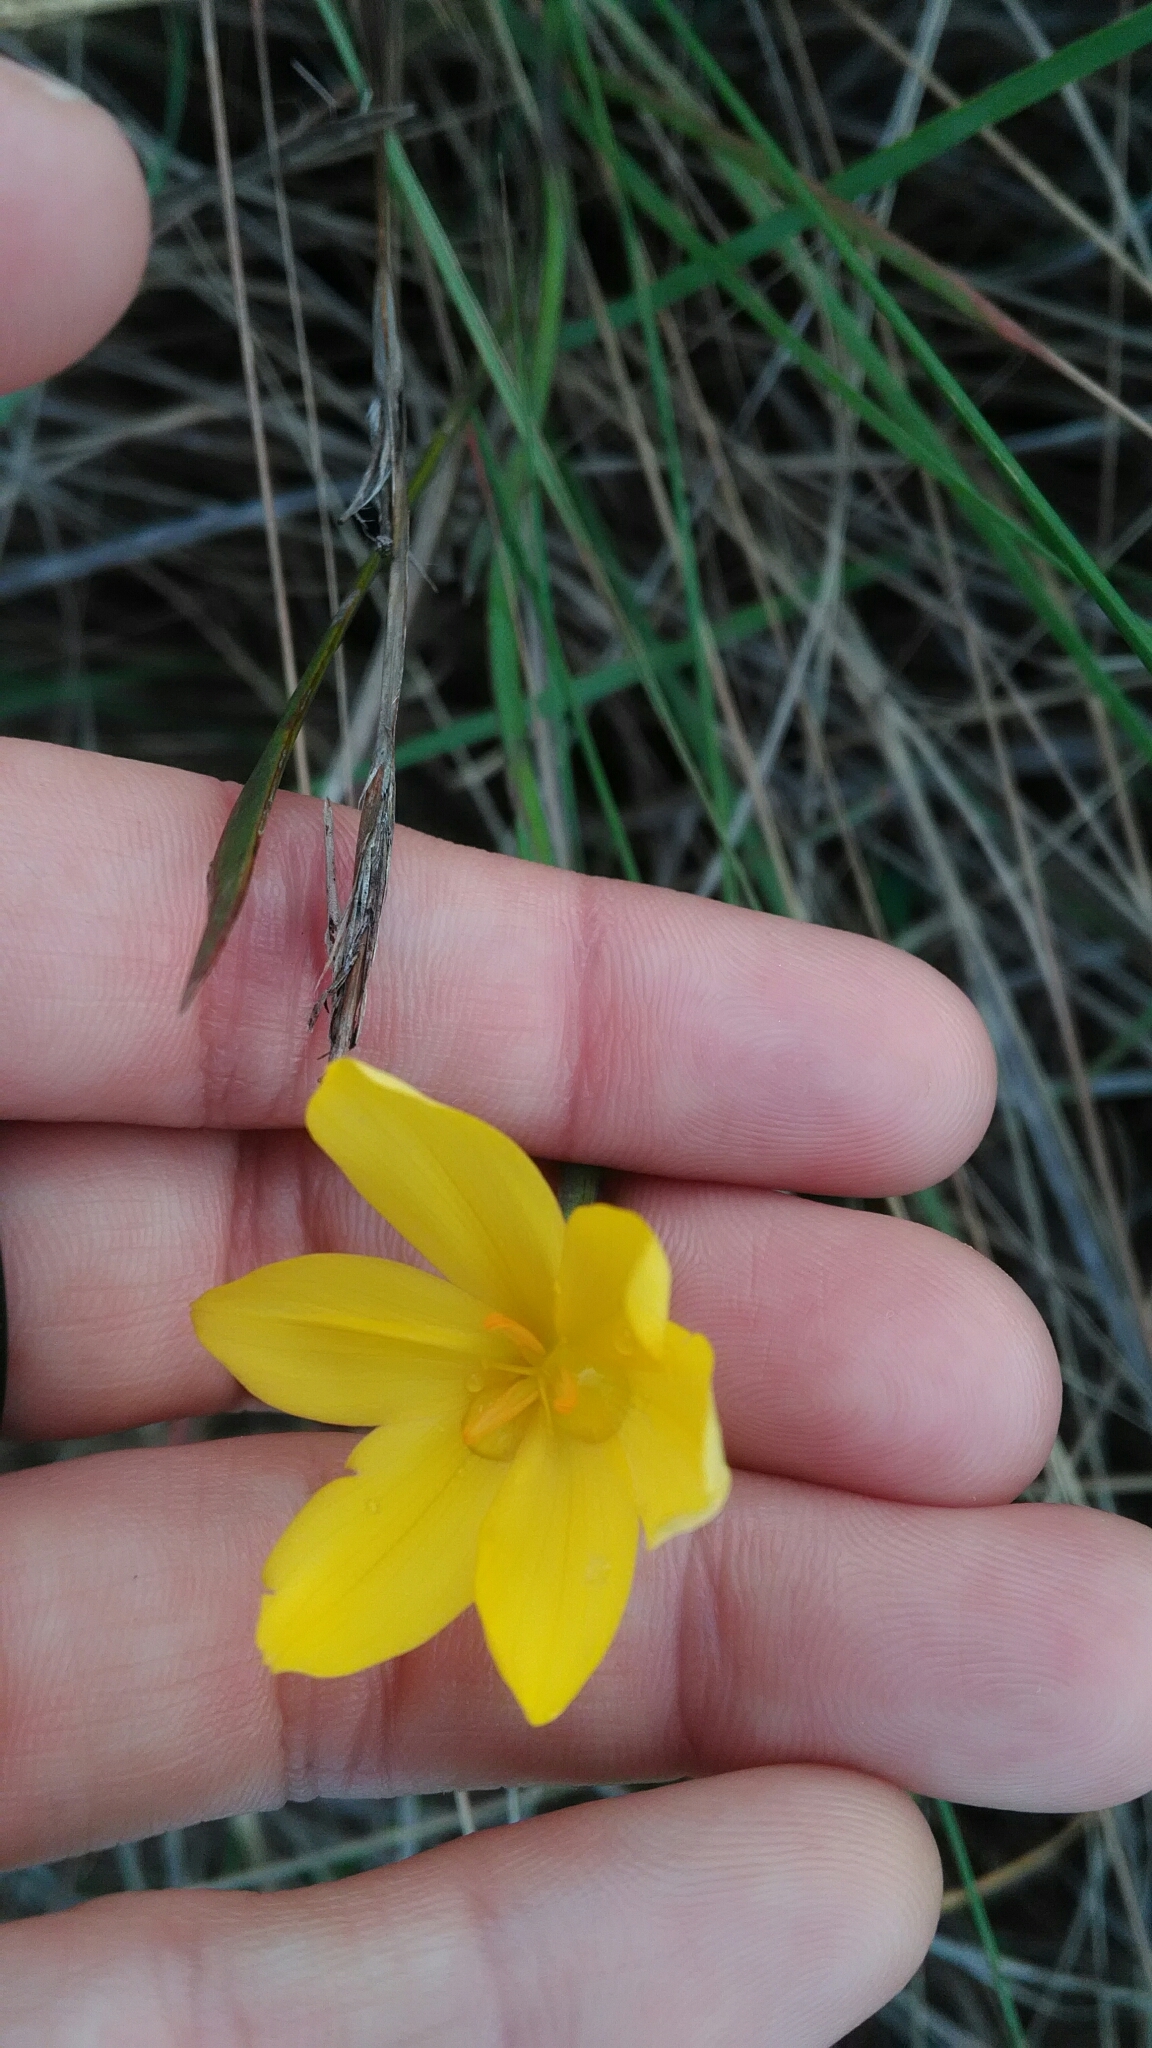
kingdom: Plantae
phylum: Tracheophyta
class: Liliopsida
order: Asparagales
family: Iridaceae
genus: Sisyrinchium
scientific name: Sisyrinchium vaginatum
